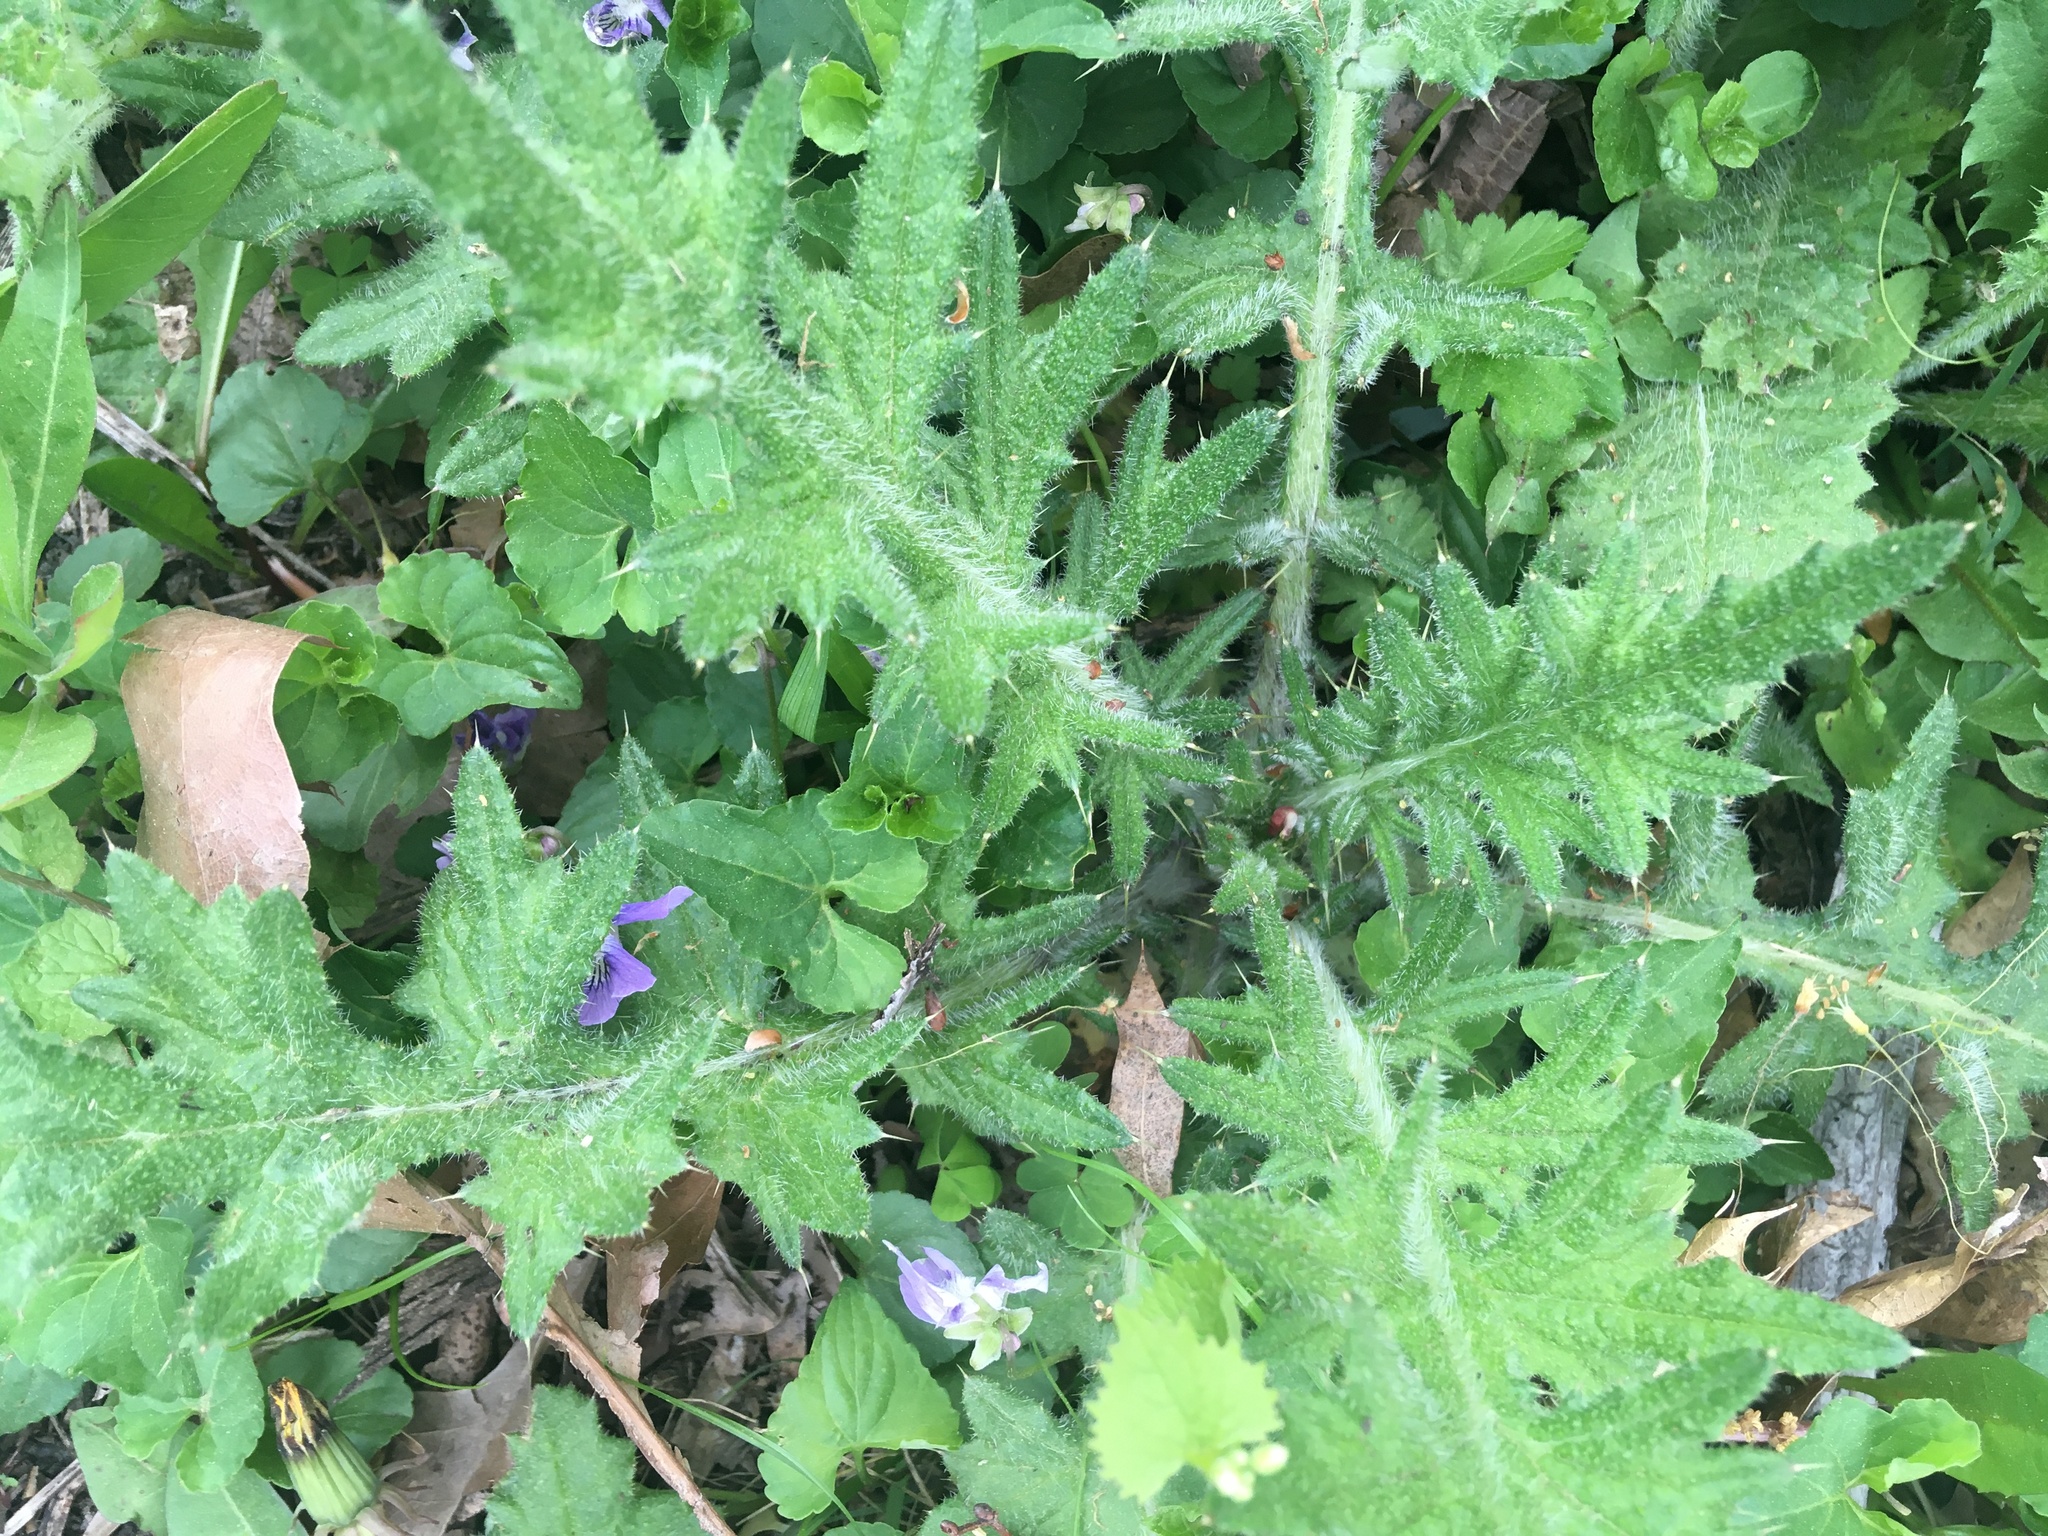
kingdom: Plantae
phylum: Tracheophyta
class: Magnoliopsida
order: Asterales
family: Asteraceae
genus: Cirsium
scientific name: Cirsium vulgare
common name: Bull thistle
